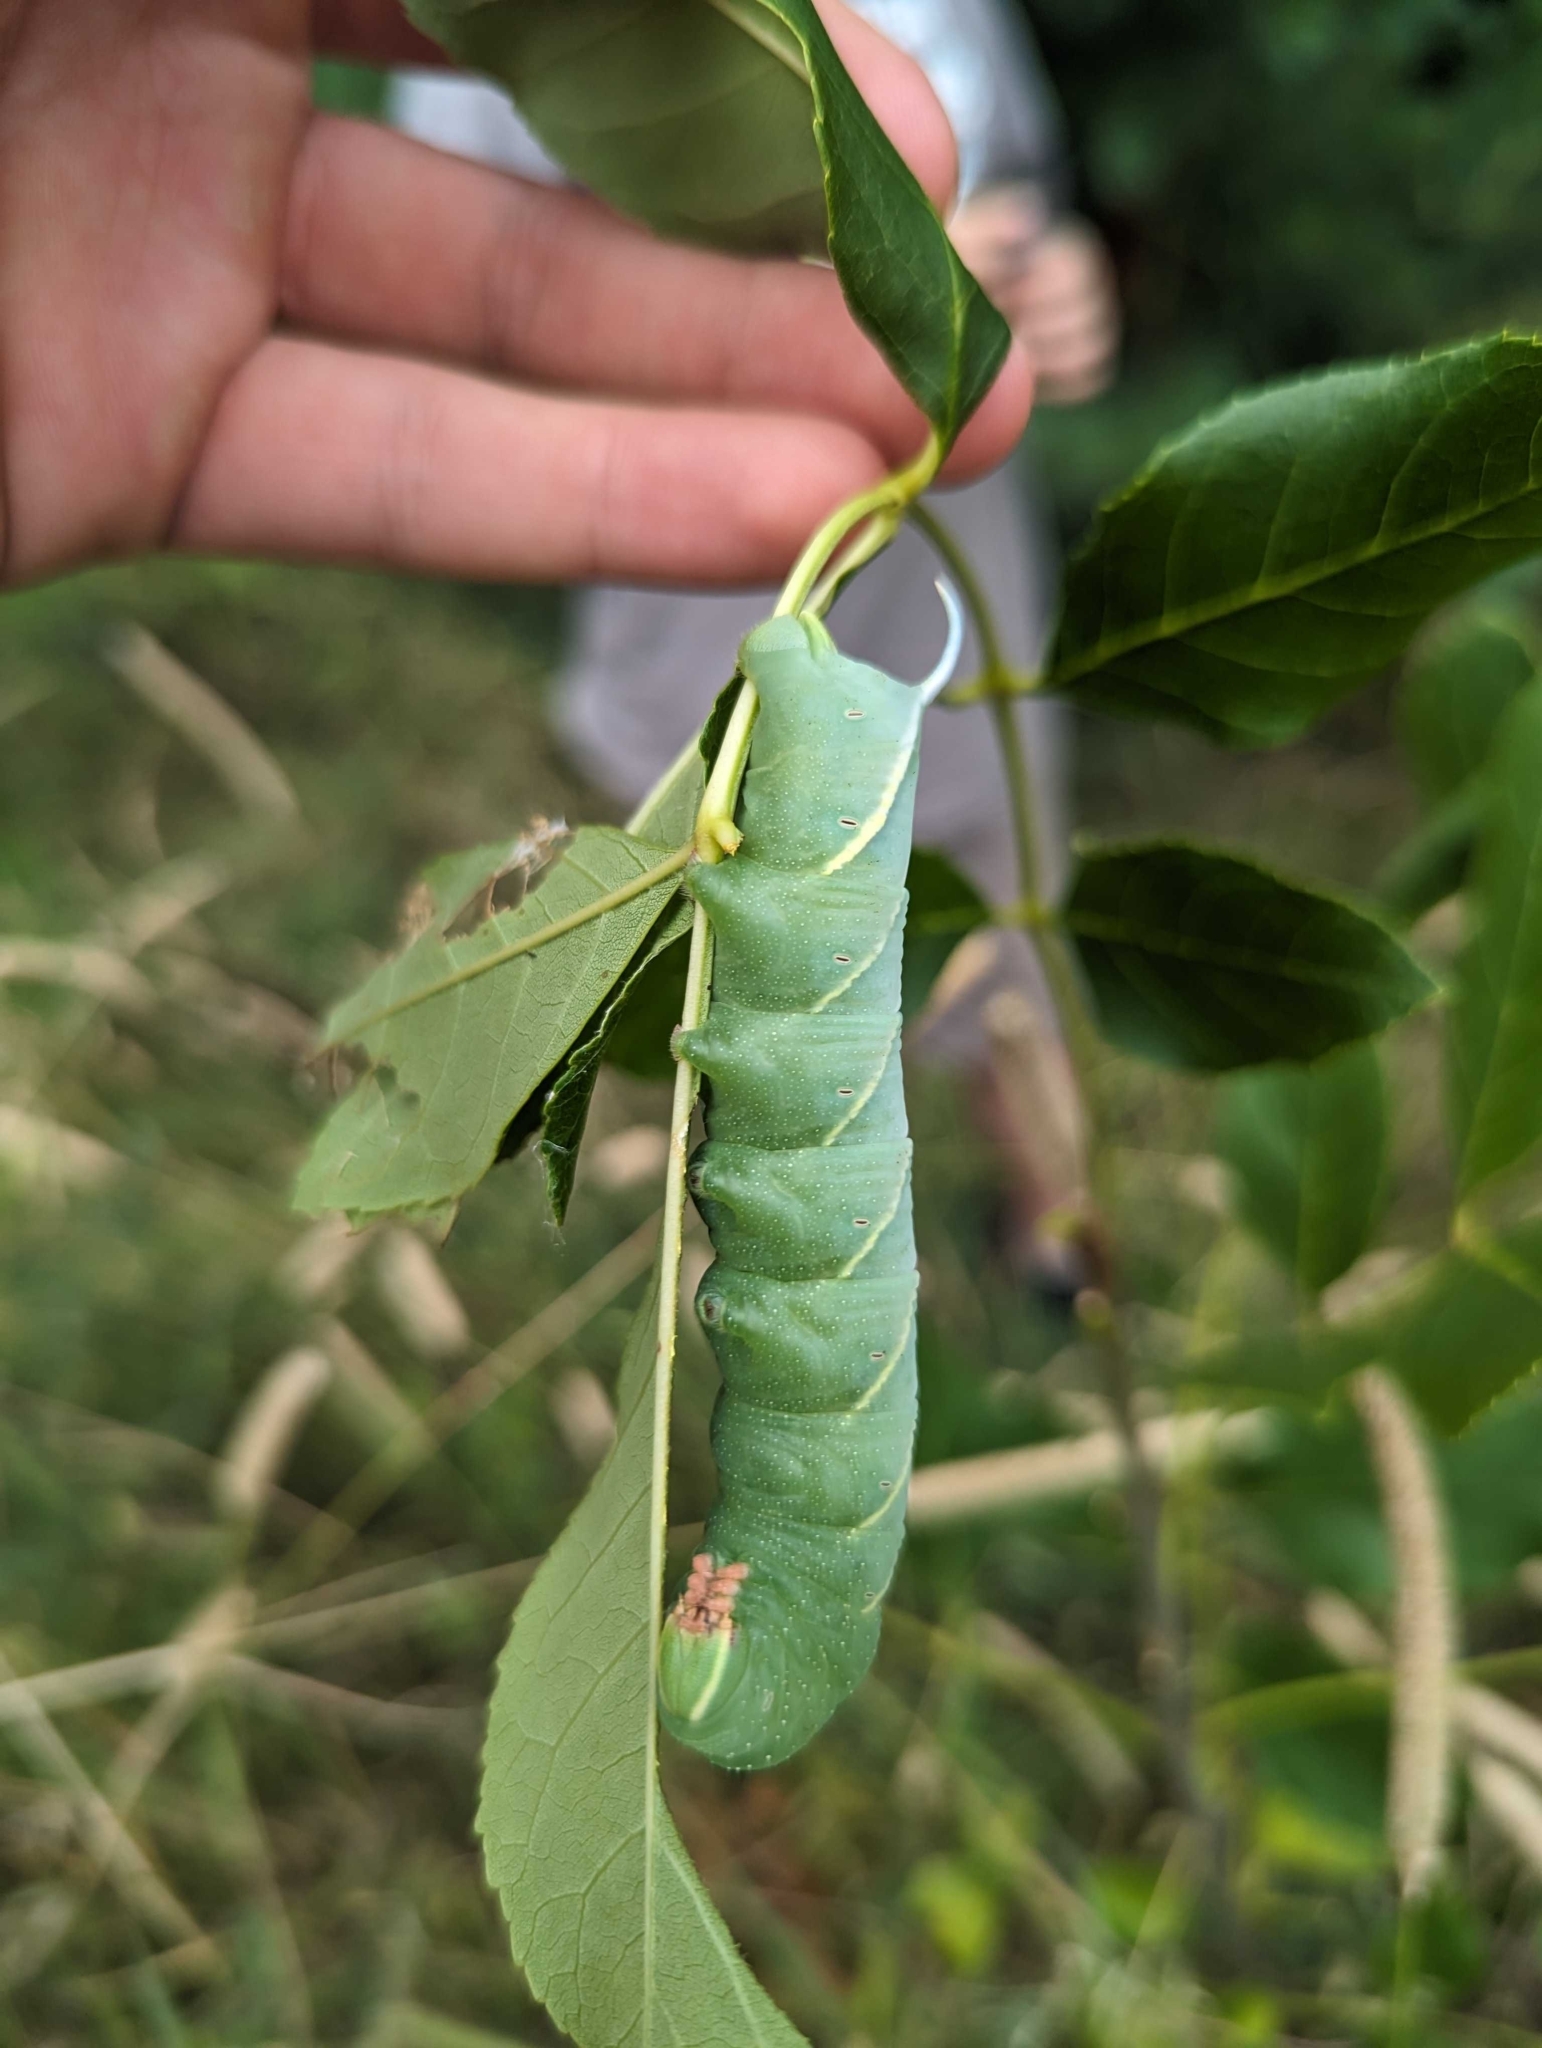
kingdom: Animalia
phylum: Arthropoda
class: Insecta
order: Lepidoptera
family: Sphingidae
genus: Sphinx
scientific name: Sphinx chersis
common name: Great ash sphinx
